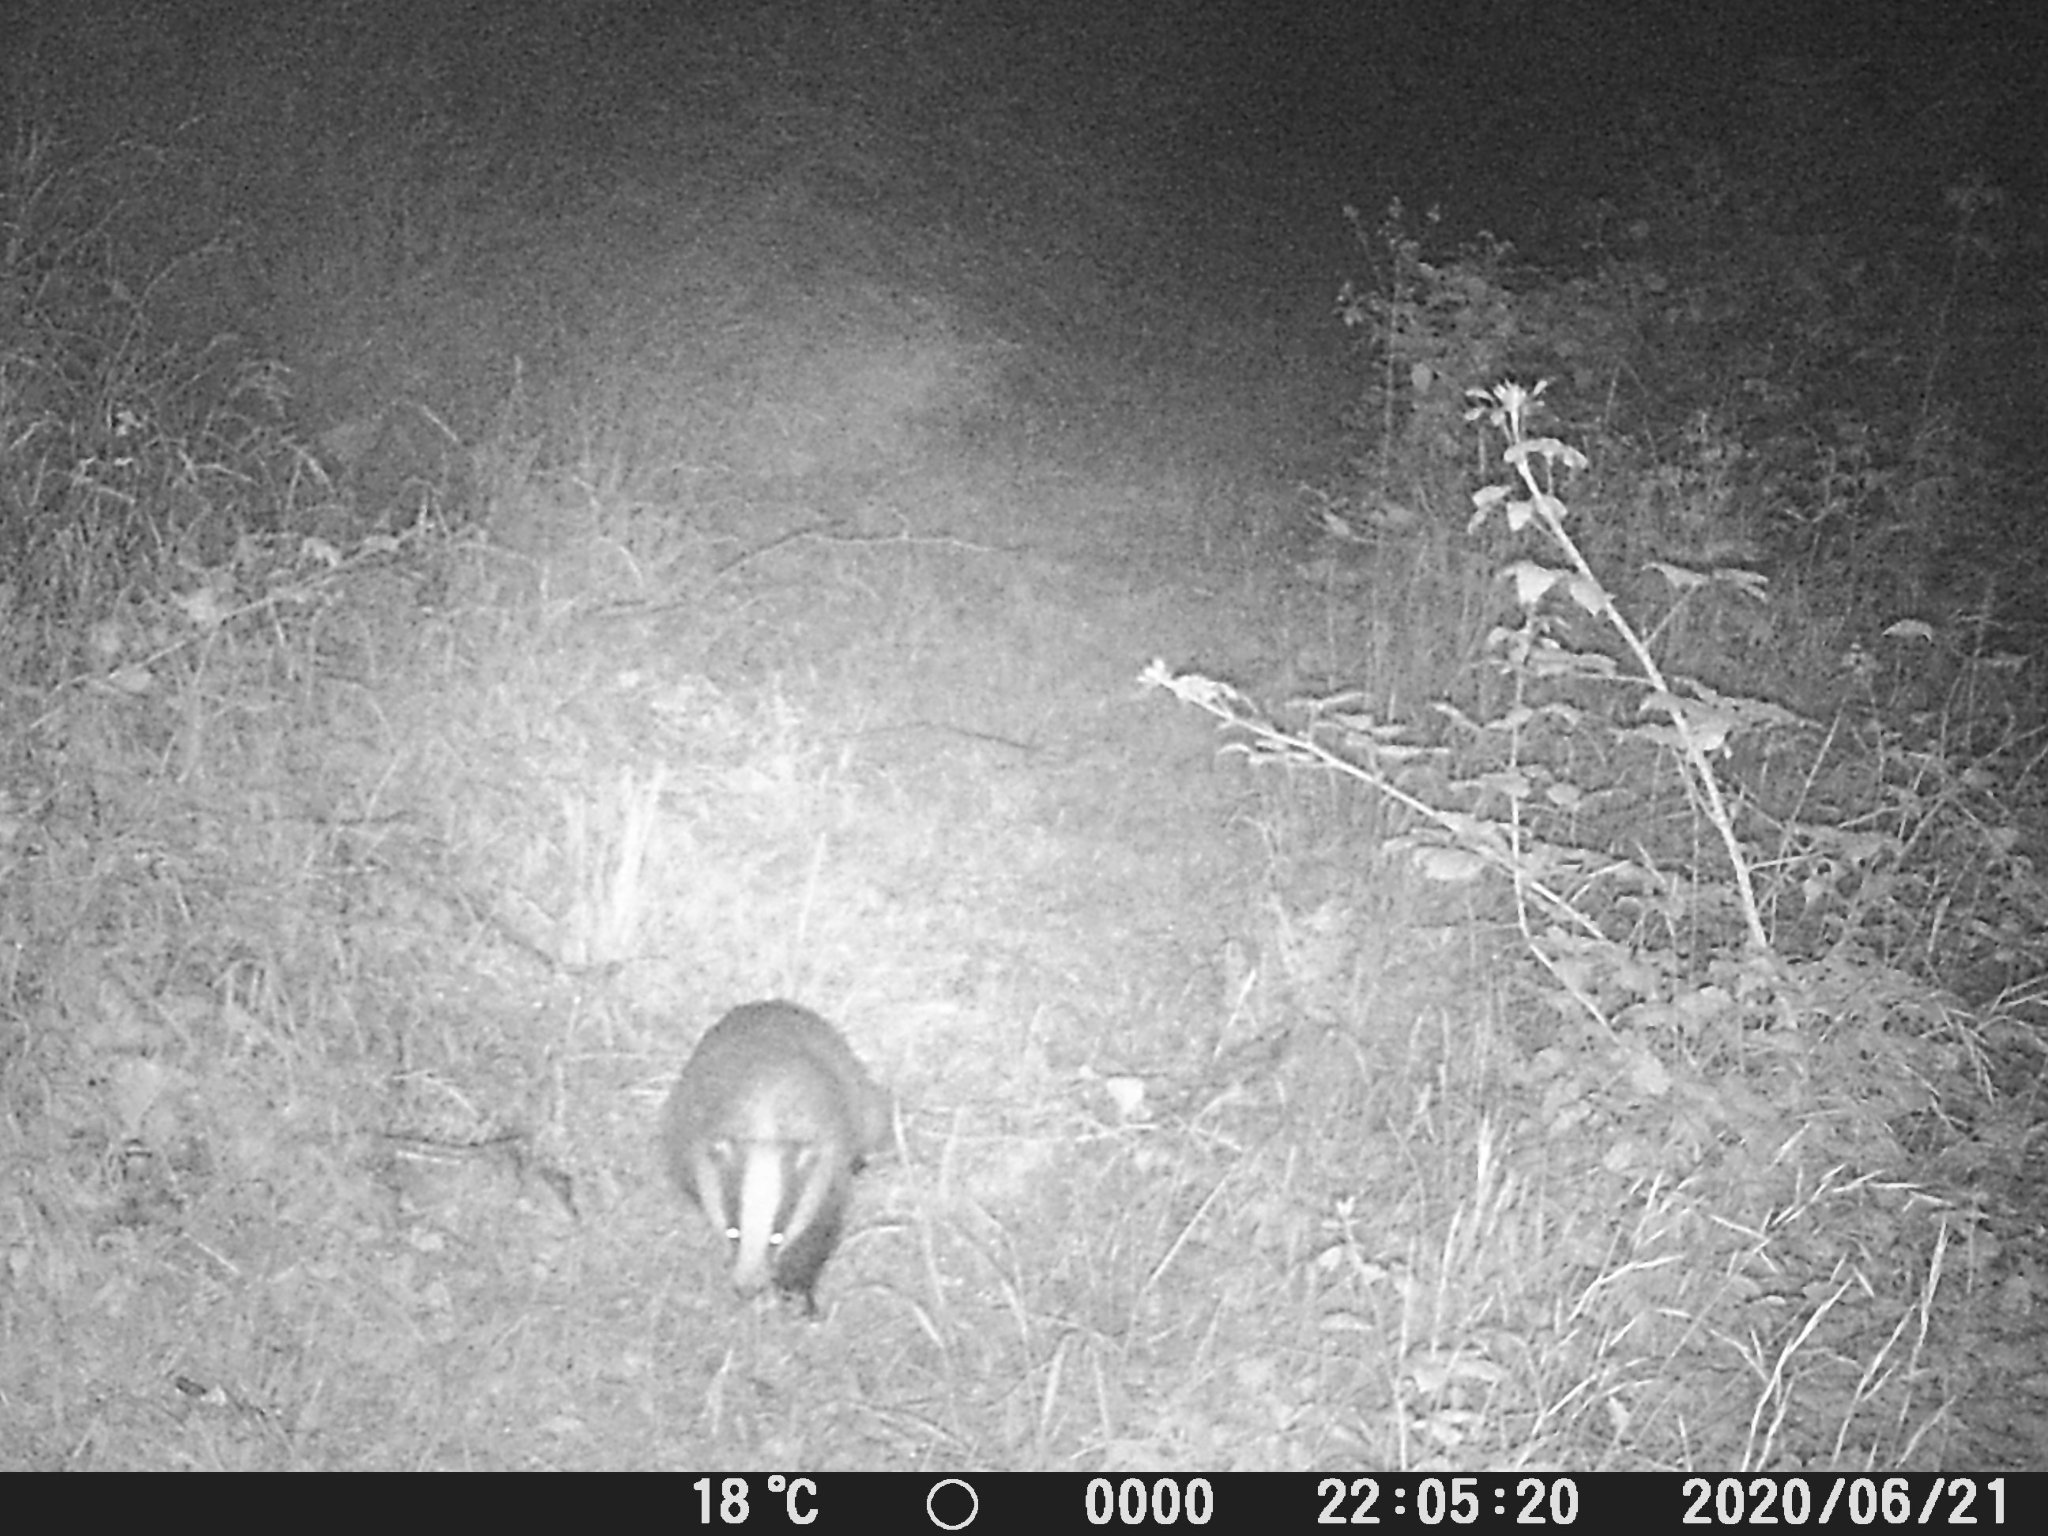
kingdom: Animalia
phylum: Chordata
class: Mammalia
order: Carnivora
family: Mustelidae
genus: Meles
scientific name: Meles meles
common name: Eurasian badger
